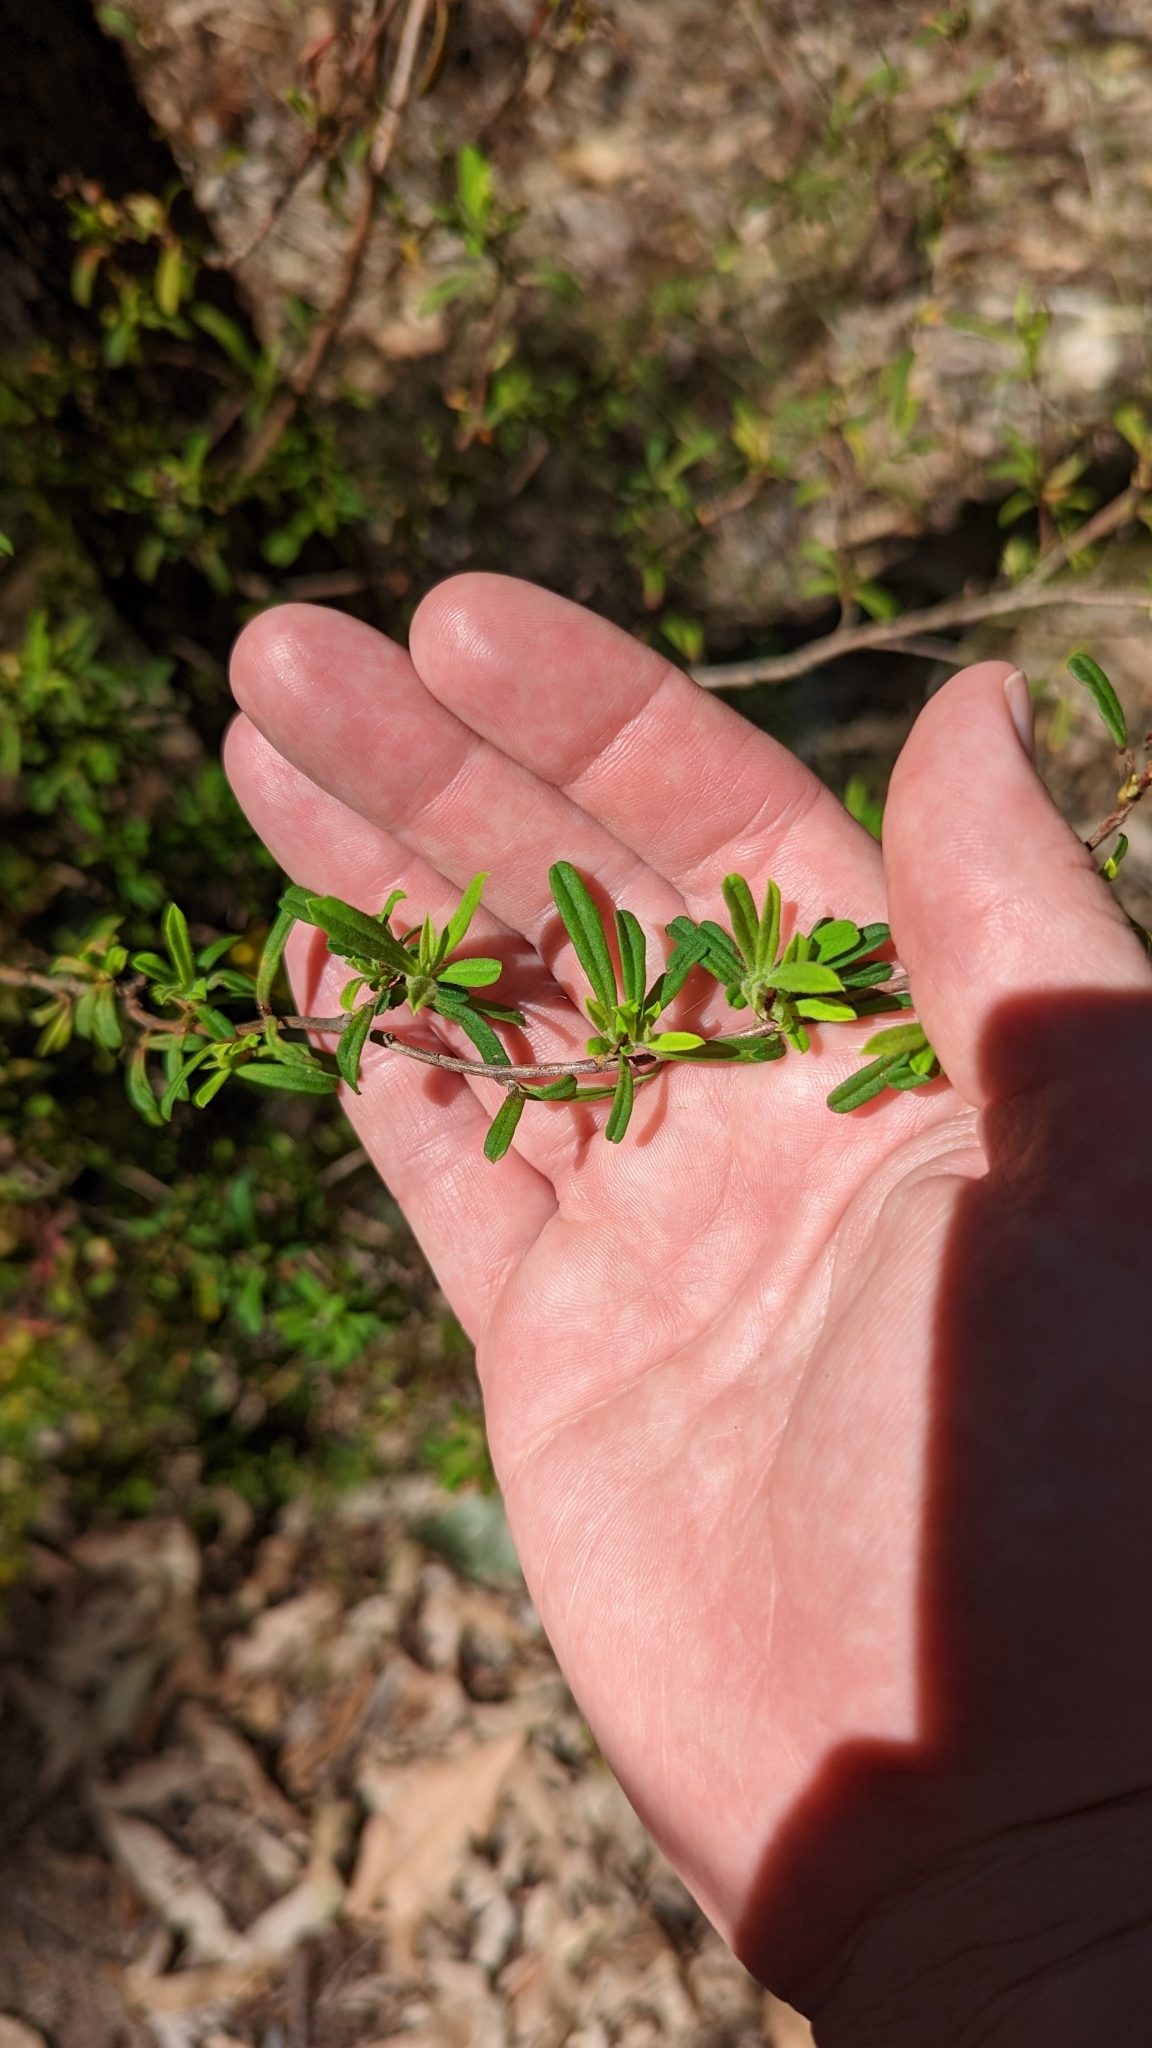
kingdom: Plantae
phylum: Tracheophyta
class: Magnoliopsida
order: Dilleniales
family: Dilleniaceae
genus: Hibbertia
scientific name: Hibbertia linearis
